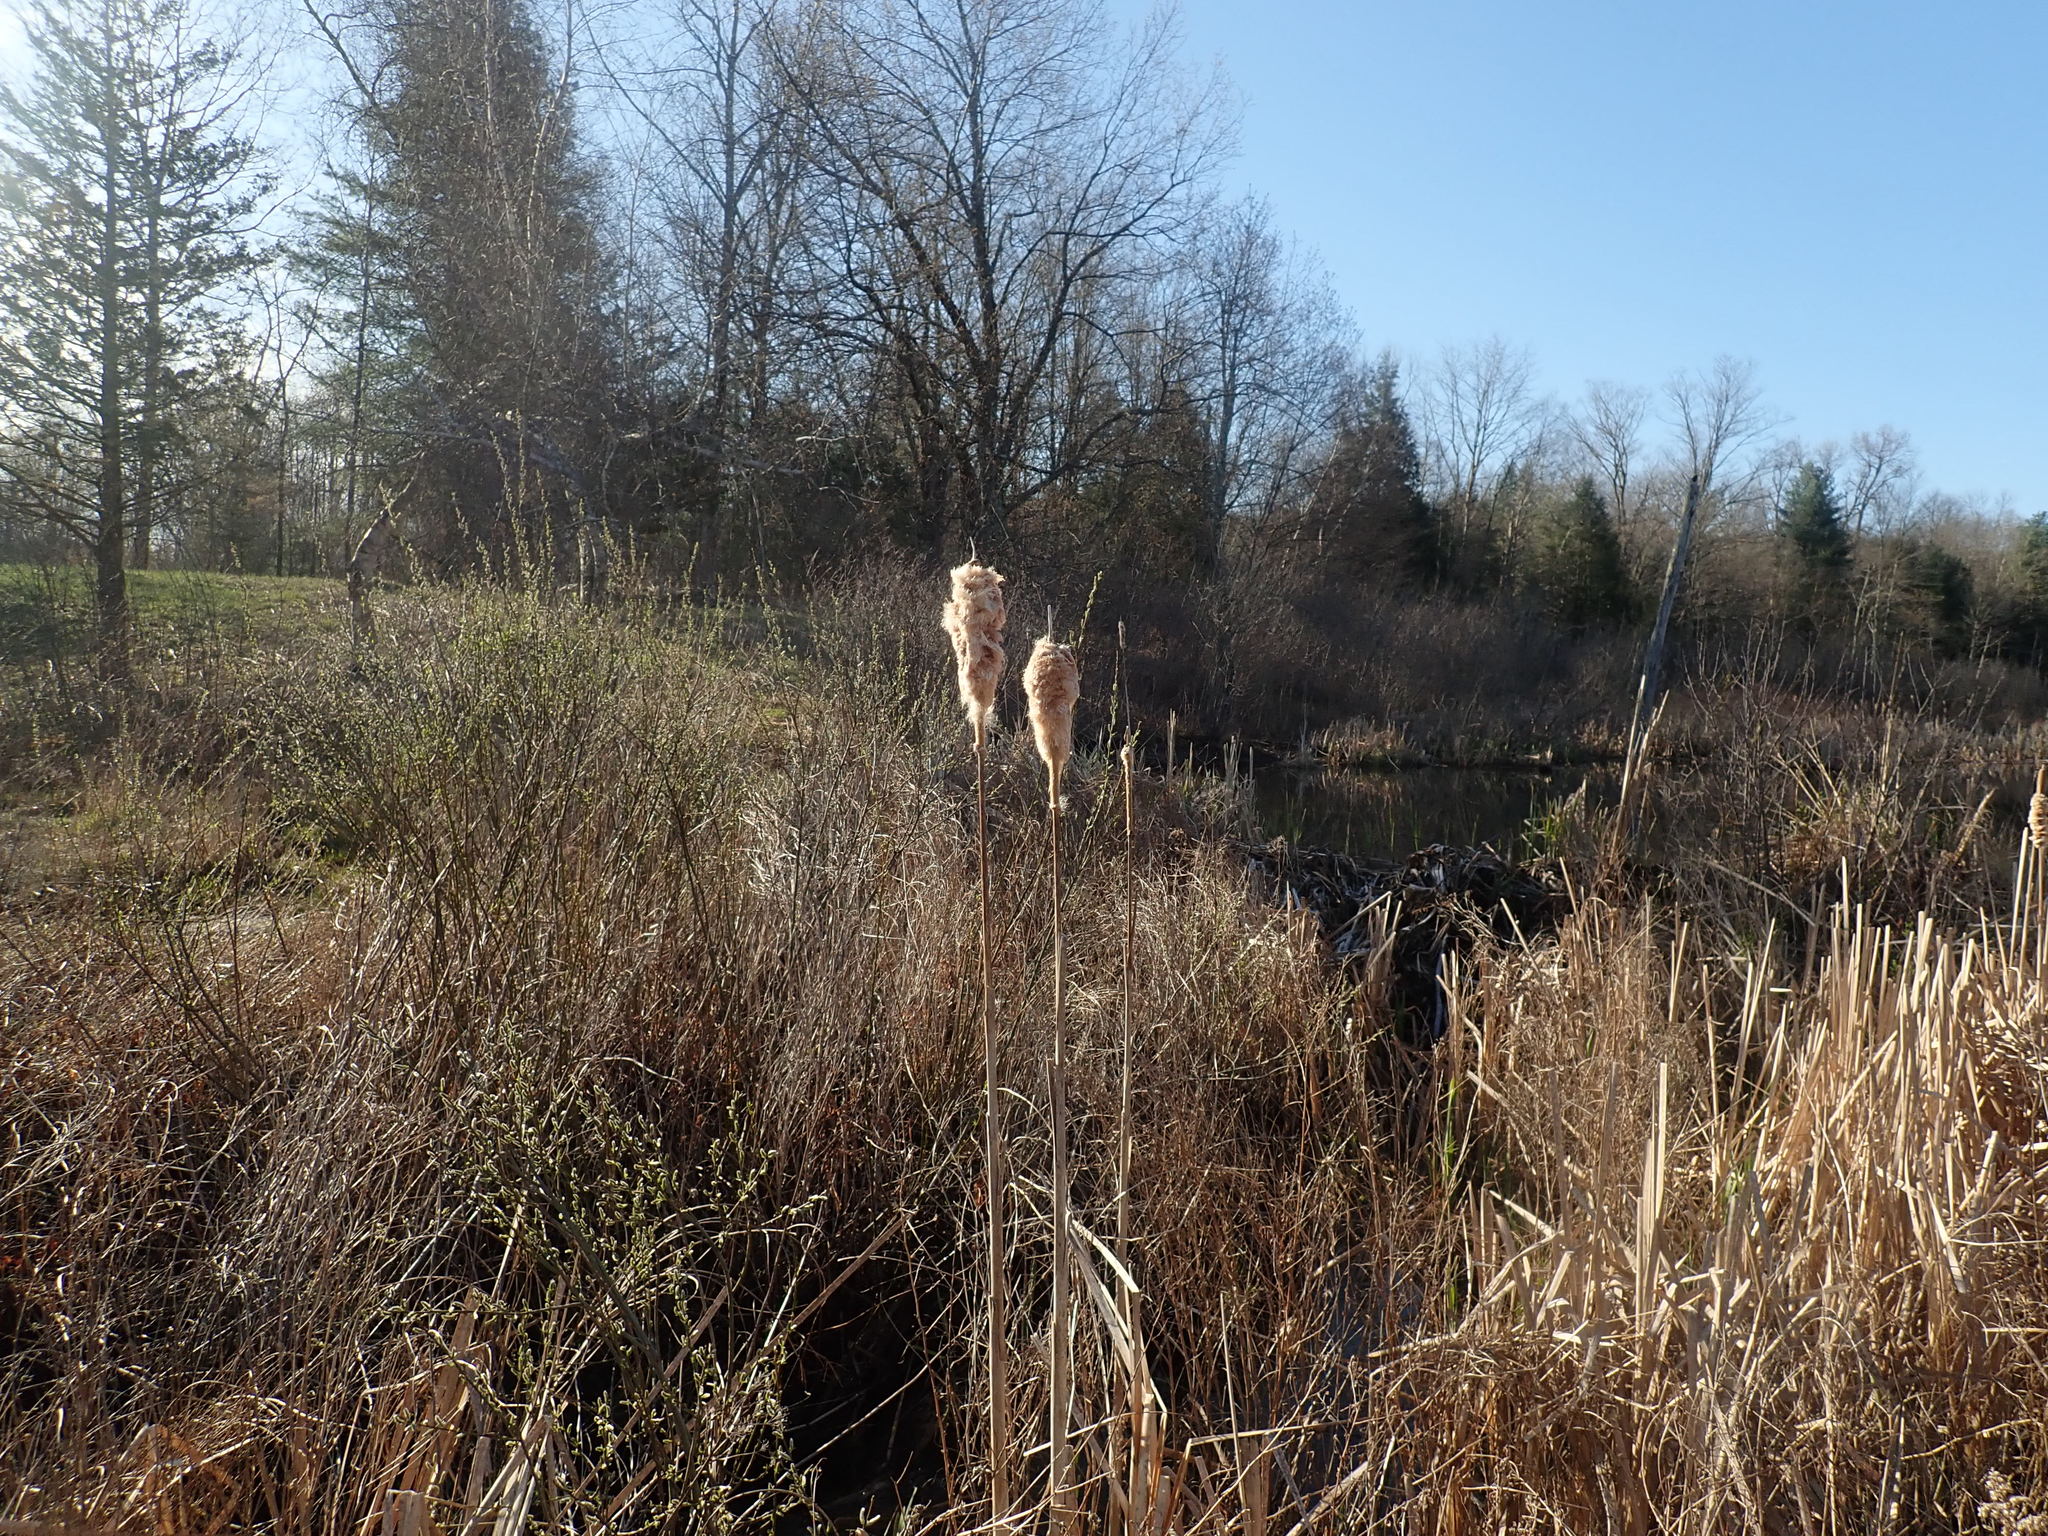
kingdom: Plantae
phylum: Tracheophyta
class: Liliopsida
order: Poales
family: Typhaceae
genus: Typha
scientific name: Typha latifolia
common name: Broadleaf cattail
